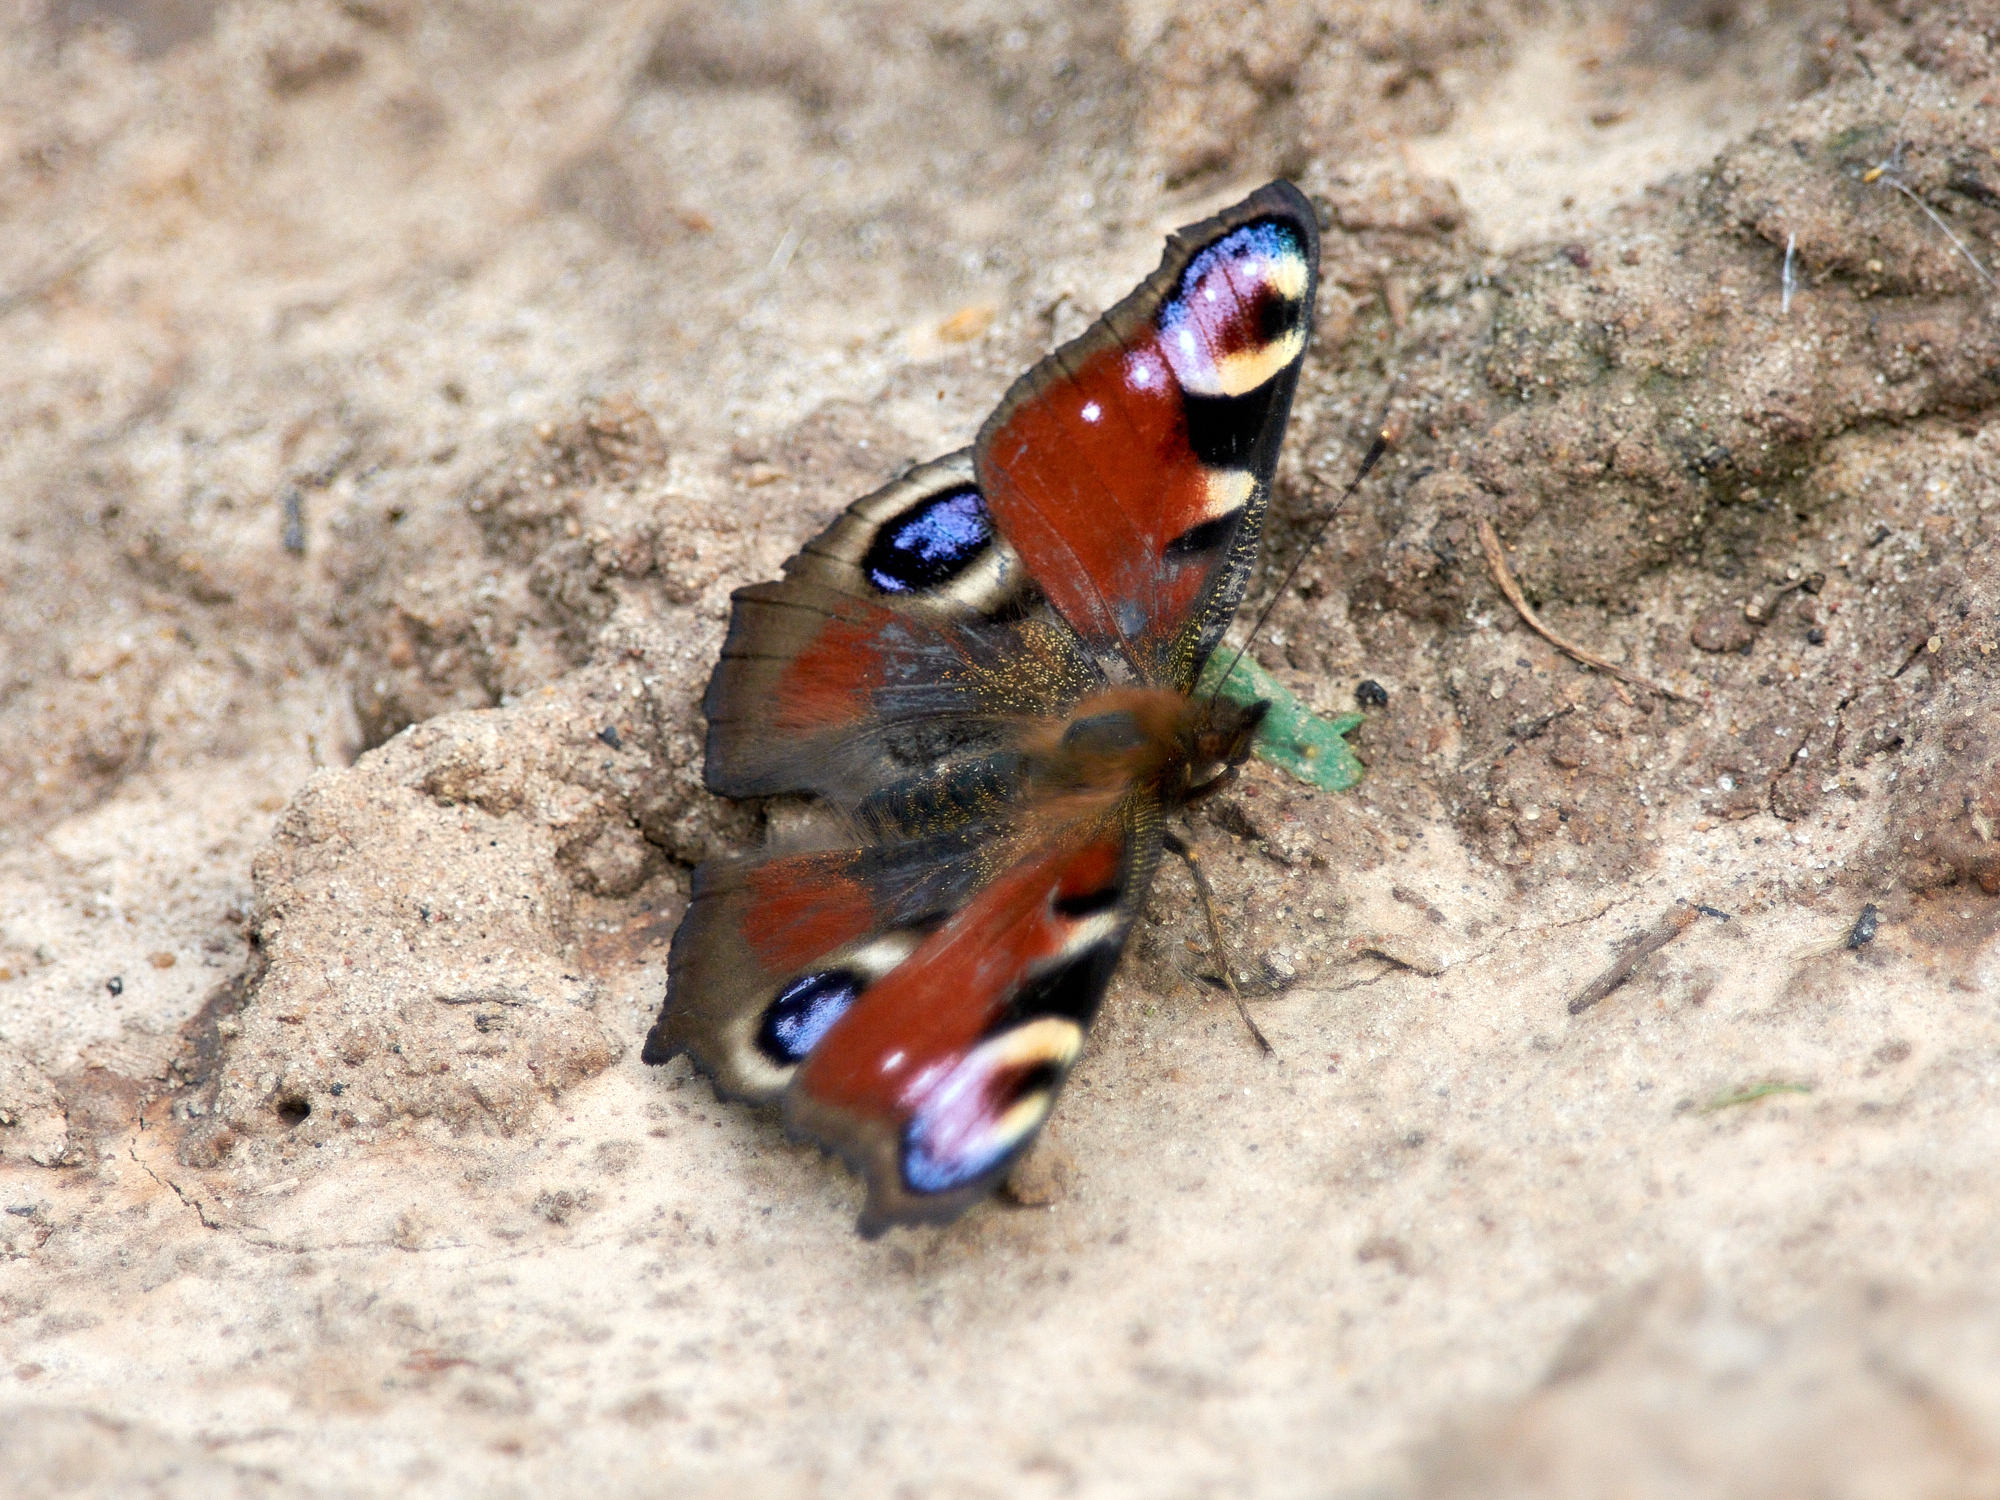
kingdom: Animalia
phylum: Arthropoda
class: Insecta
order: Lepidoptera
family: Nymphalidae
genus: Aglais
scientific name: Aglais io
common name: Peacock
